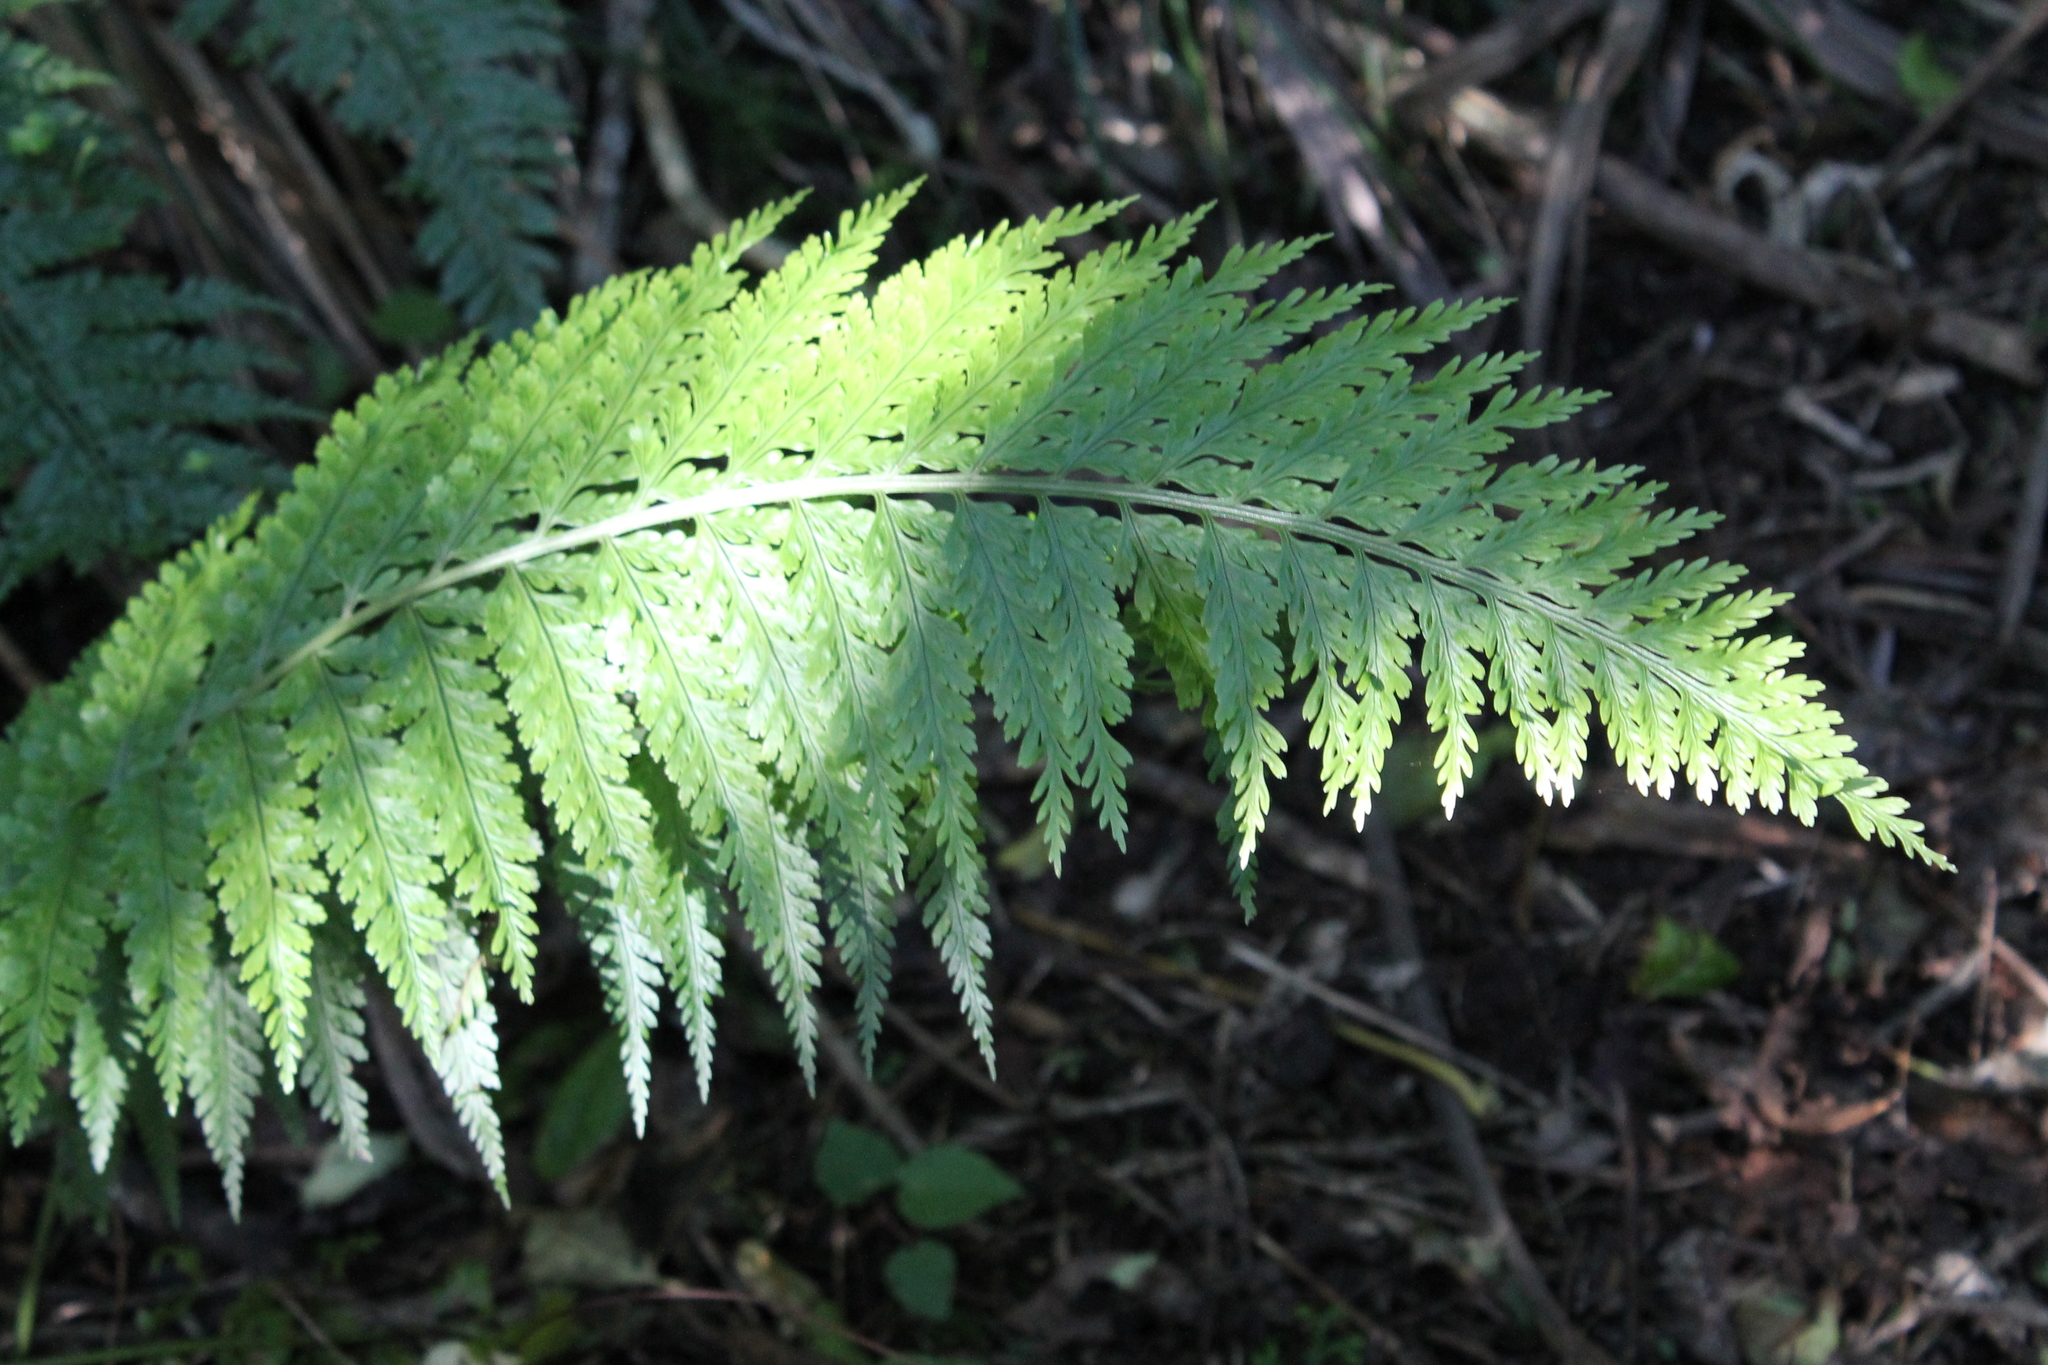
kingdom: Plantae
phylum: Tracheophyta
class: Polypodiopsida
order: Polypodiales
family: Aspleniaceae
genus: Asplenium
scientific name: Asplenium bulbiferum
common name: Mother fern
